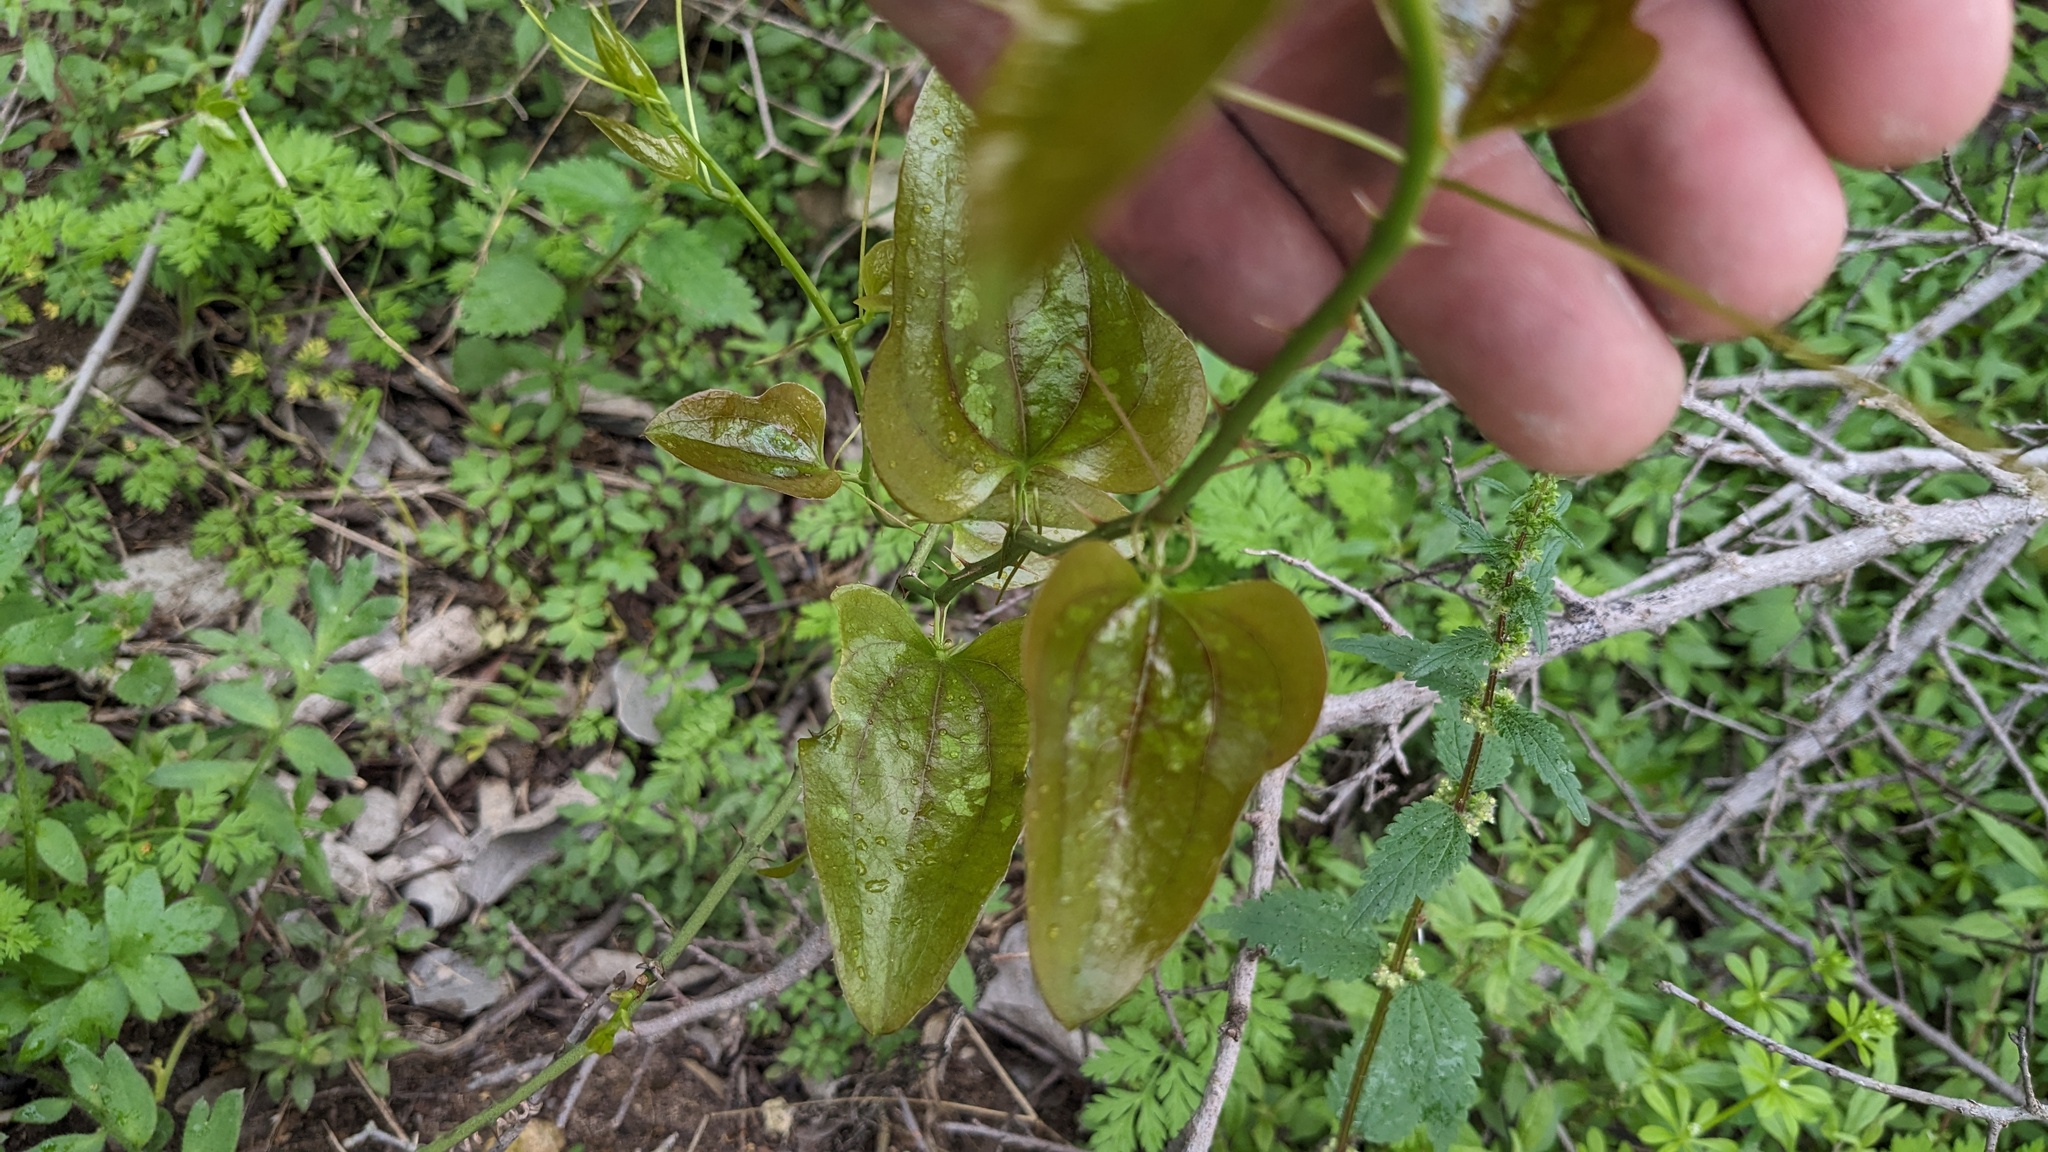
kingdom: Plantae
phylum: Tracheophyta
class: Liliopsida
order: Liliales
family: Smilacaceae
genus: Smilax
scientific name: Smilax bona-nox
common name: Catbrier
